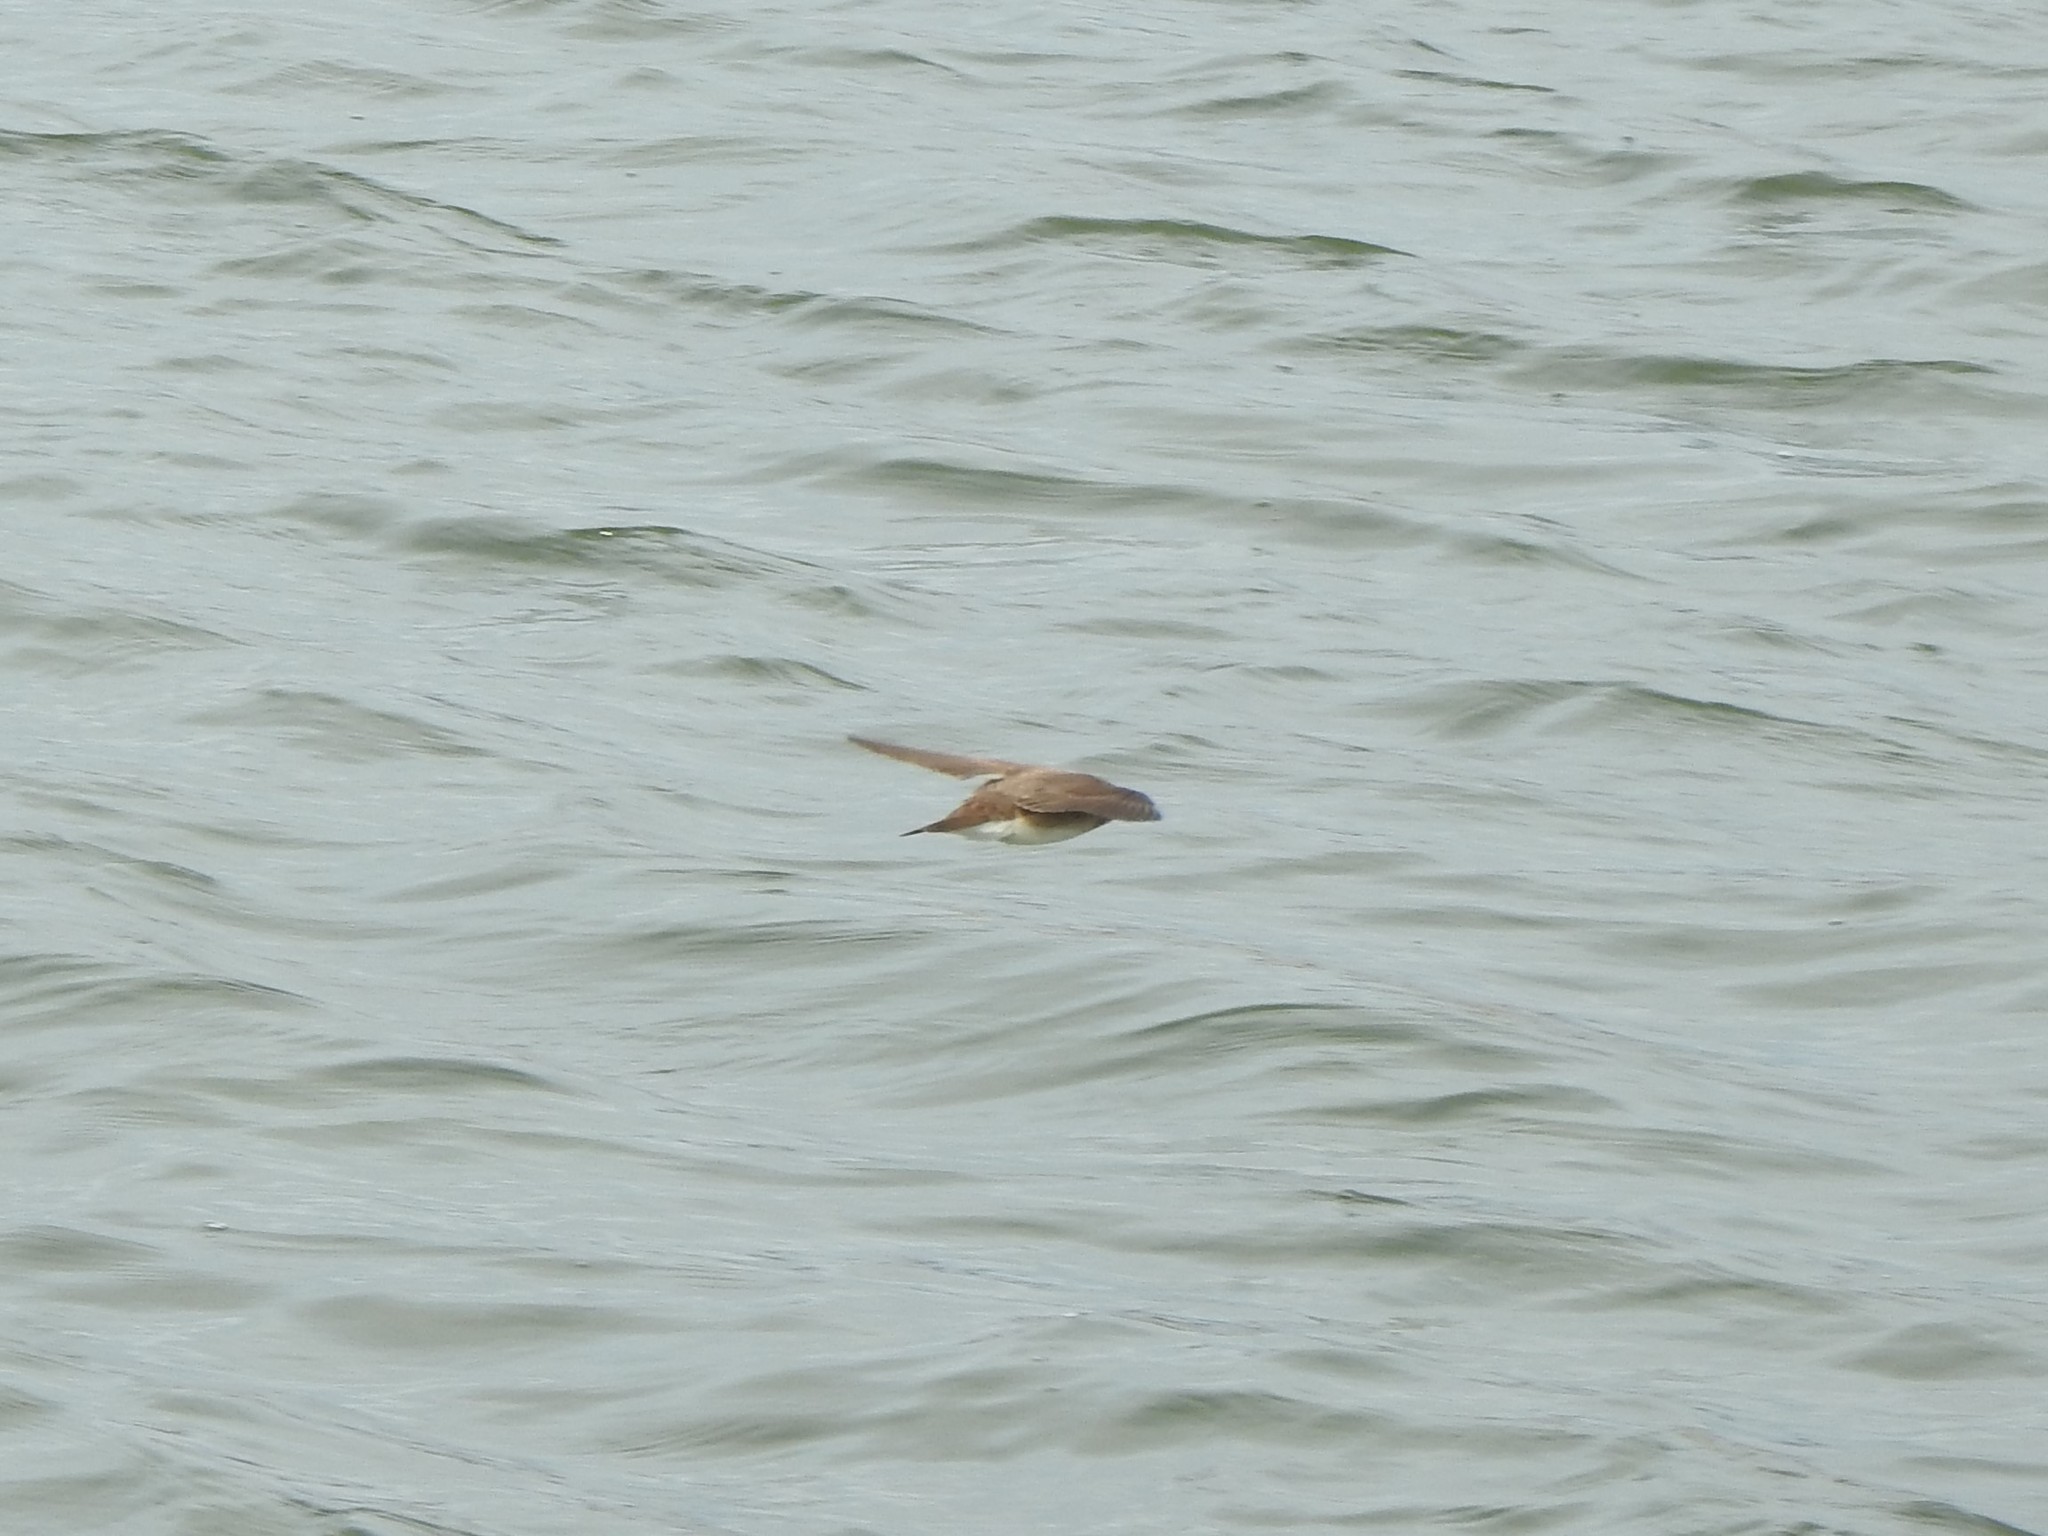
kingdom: Animalia
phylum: Chordata
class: Aves
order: Passeriformes
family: Hirundinidae
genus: Stelgidopteryx
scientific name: Stelgidopteryx serripennis
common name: Northern rough-winged swallow
